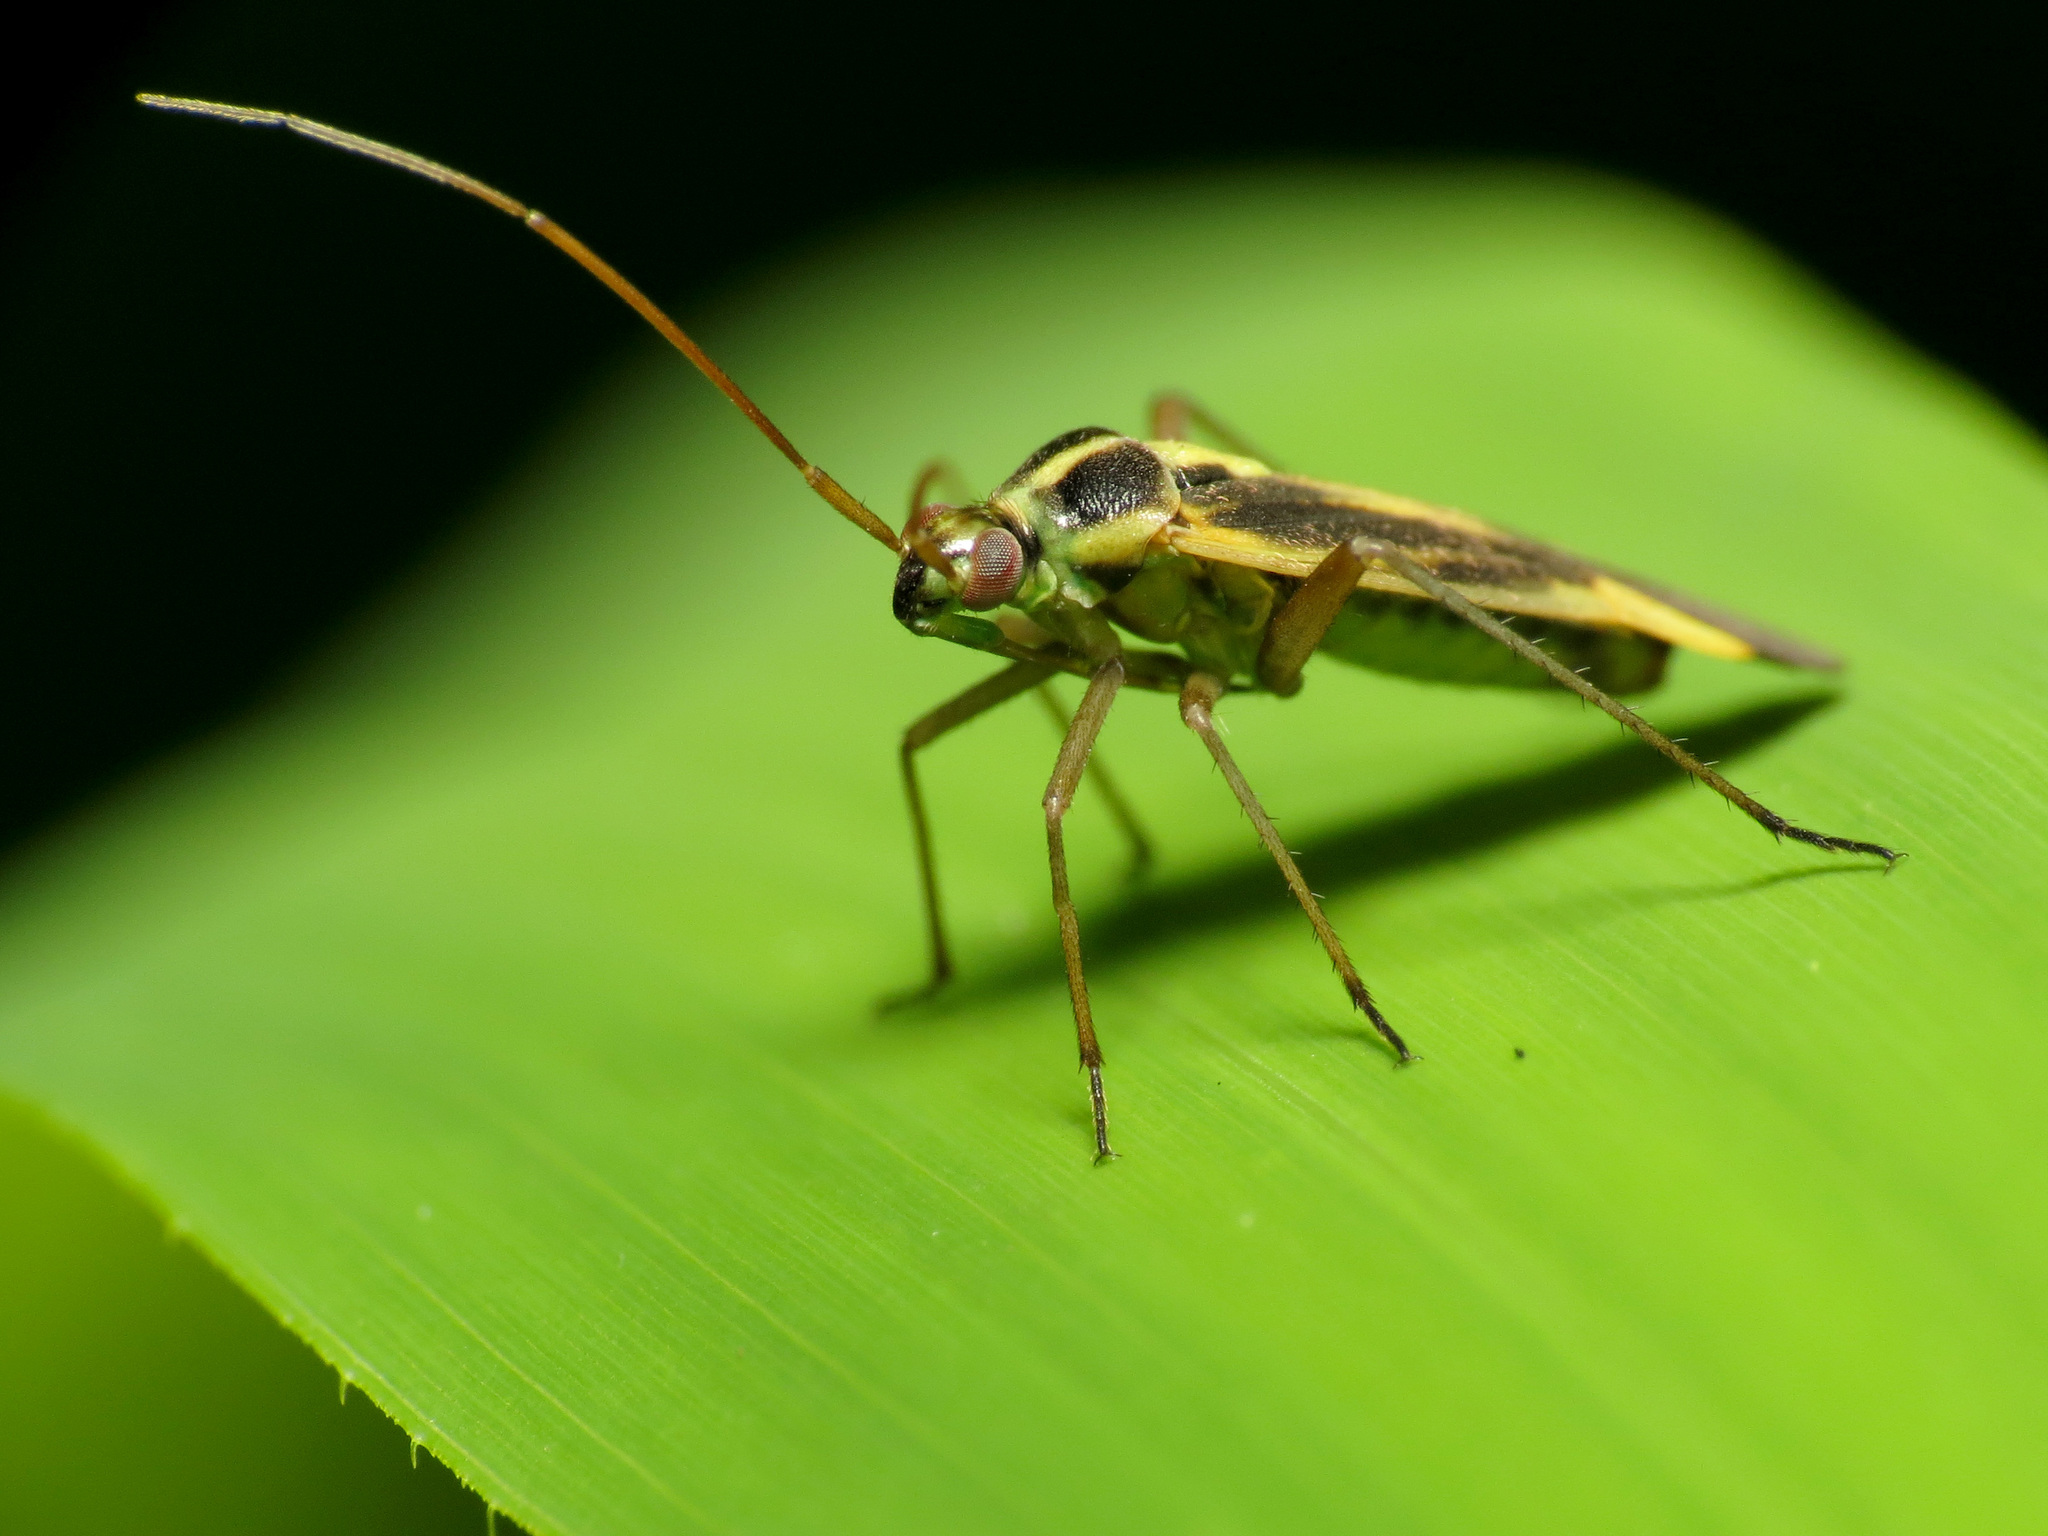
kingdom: Animalia
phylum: Arthropoda
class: Insecta
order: Hemiptera
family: Miridae
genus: Stenotus
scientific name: Stenotus binotatus
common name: Plant bug
